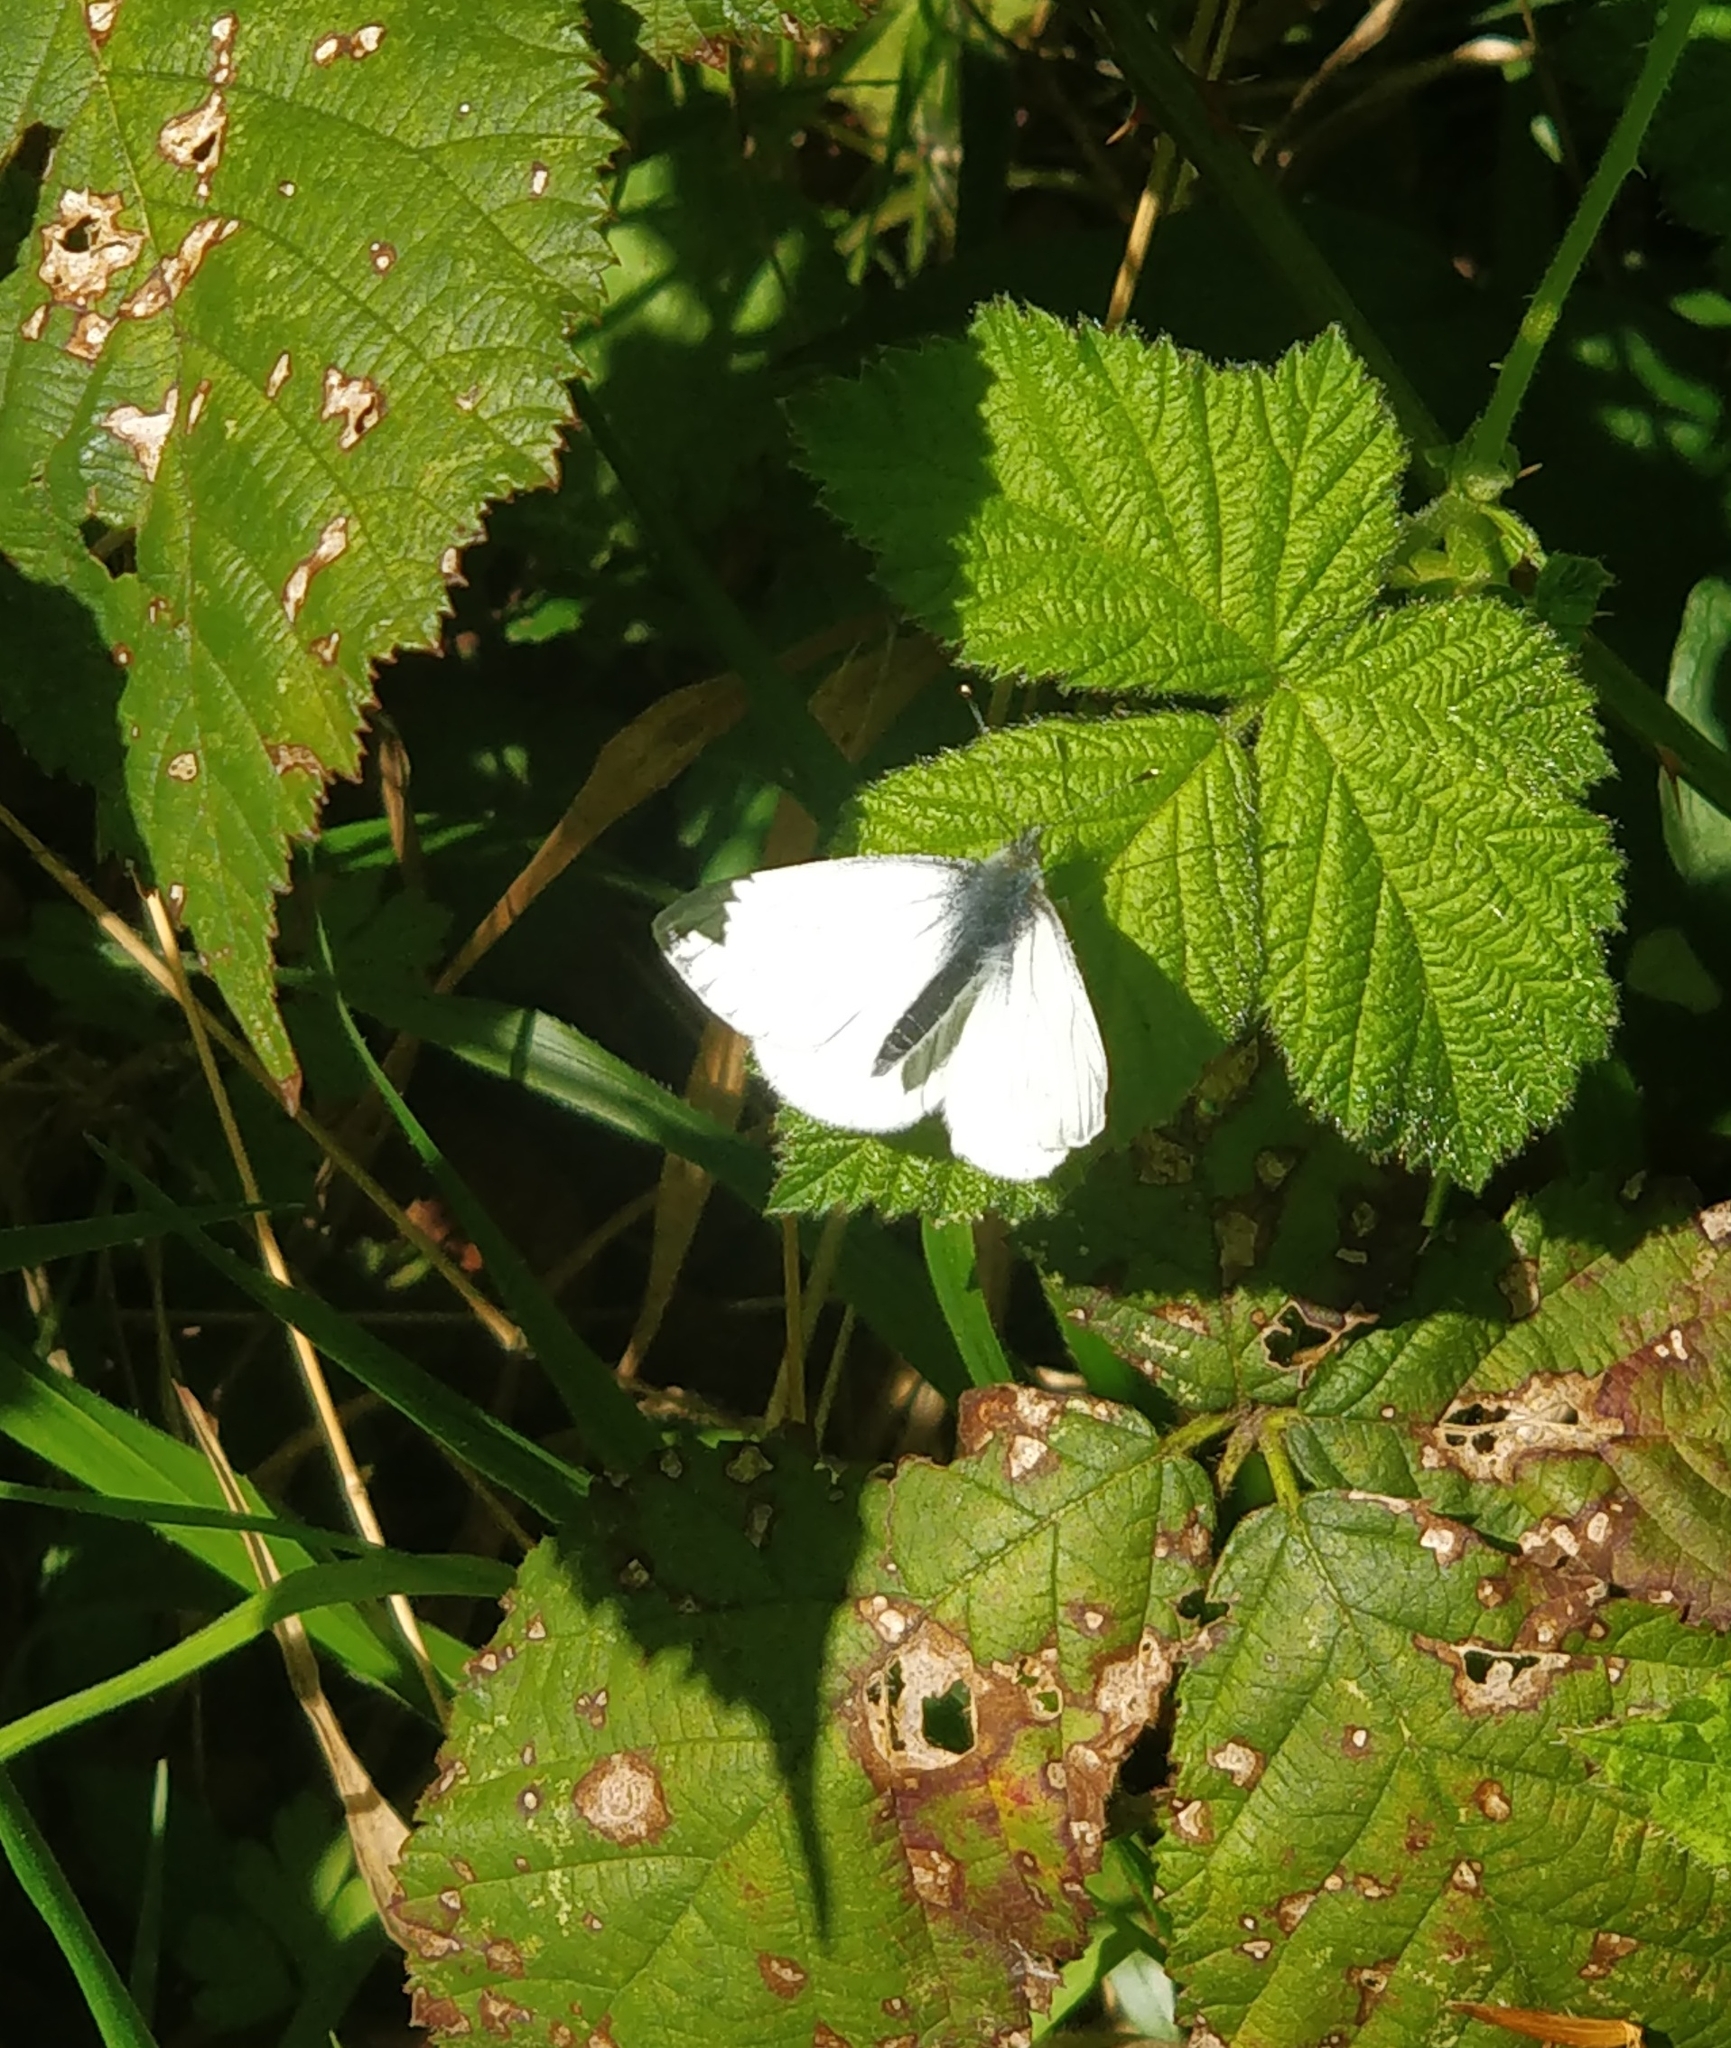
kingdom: Animalia
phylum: Arthropoda
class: Insecta
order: Lepidoptera
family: Pieridae
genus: Pieris
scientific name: Pieris napi
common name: Green-veined white
